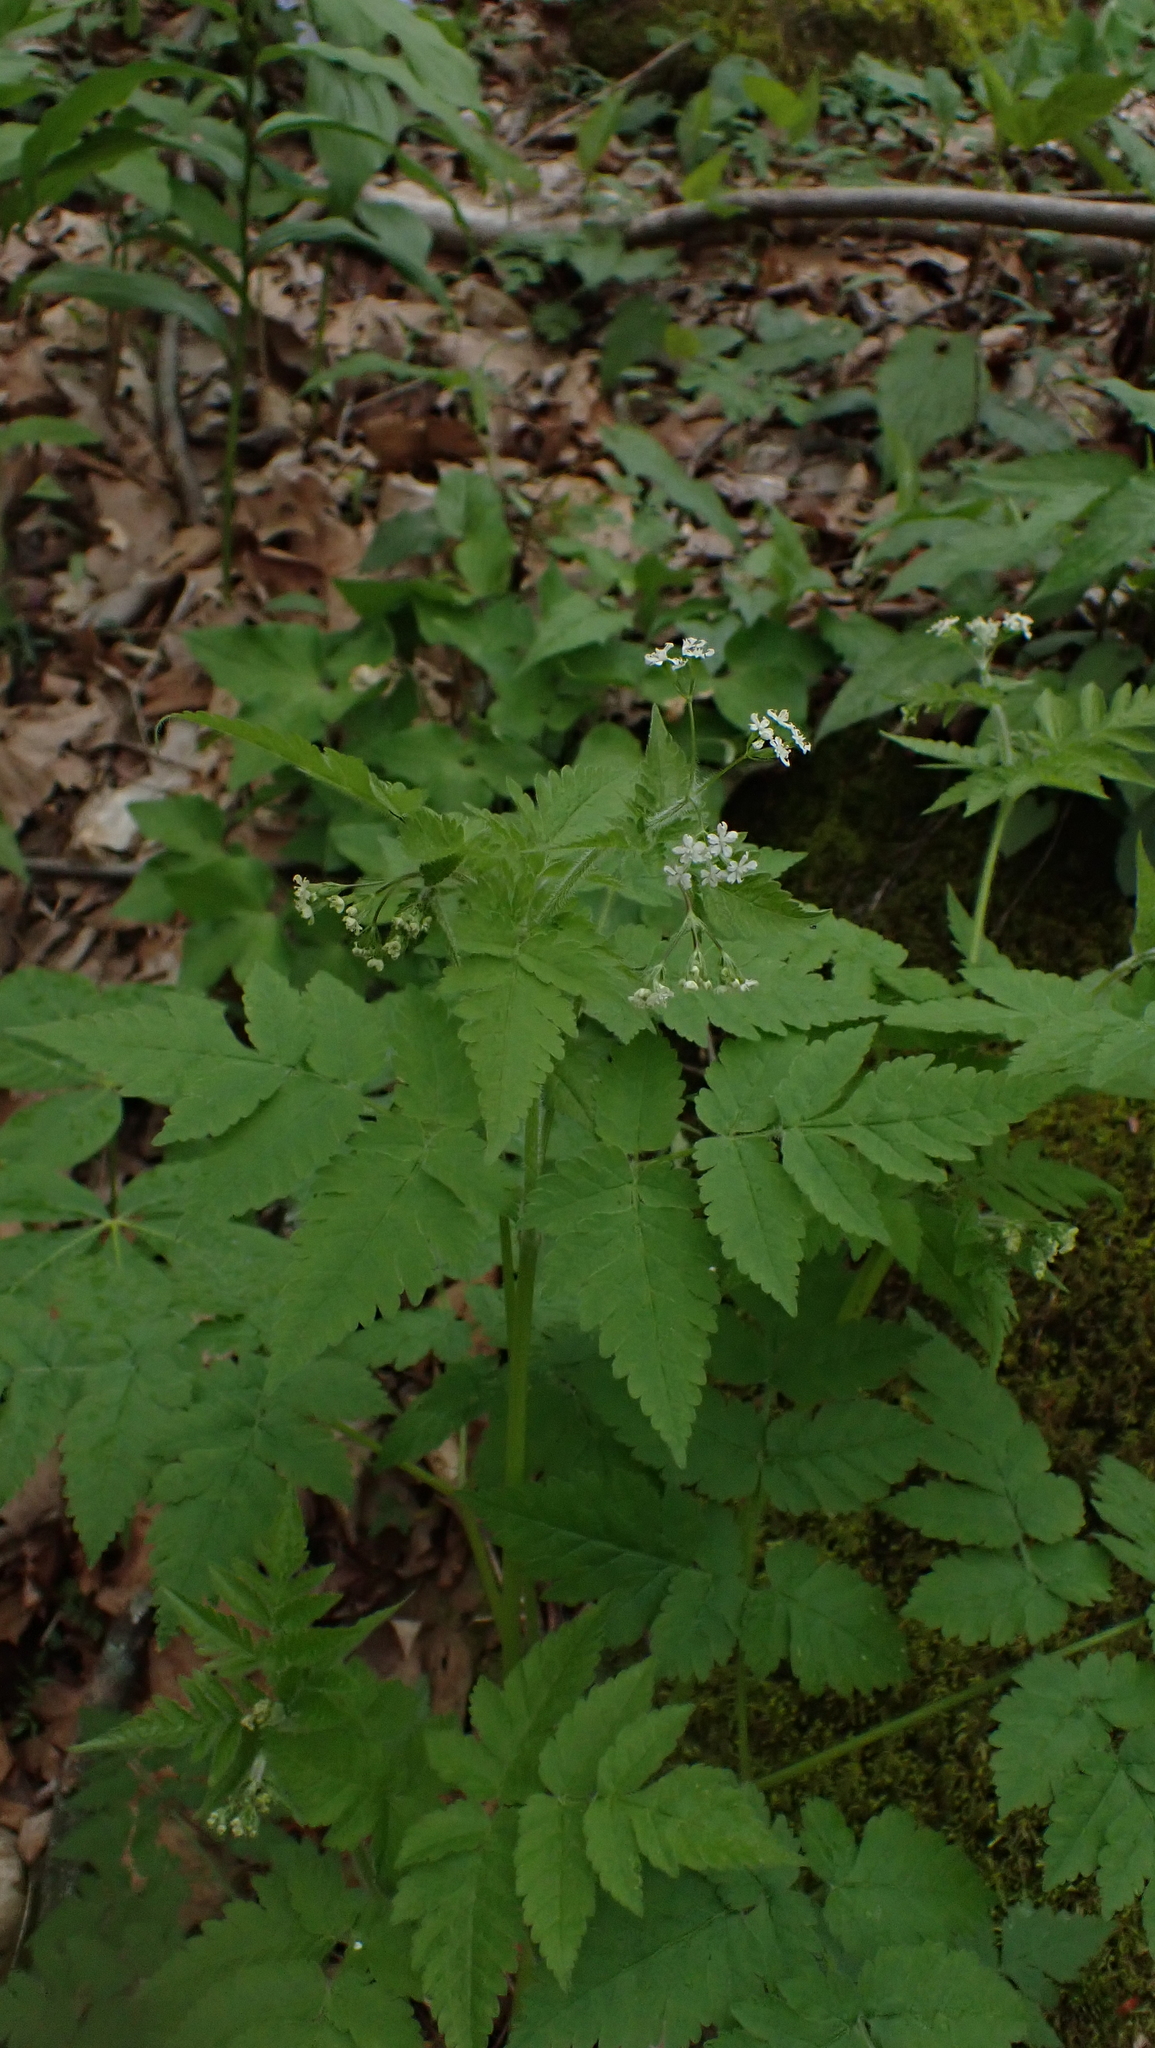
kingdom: Plantae
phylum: Tracheophyta
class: Magnoliopsida
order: Apiales
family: Apiaceae
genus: Osmorhiza
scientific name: Osmorhiza claytonii
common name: Hairy sweet cicely
